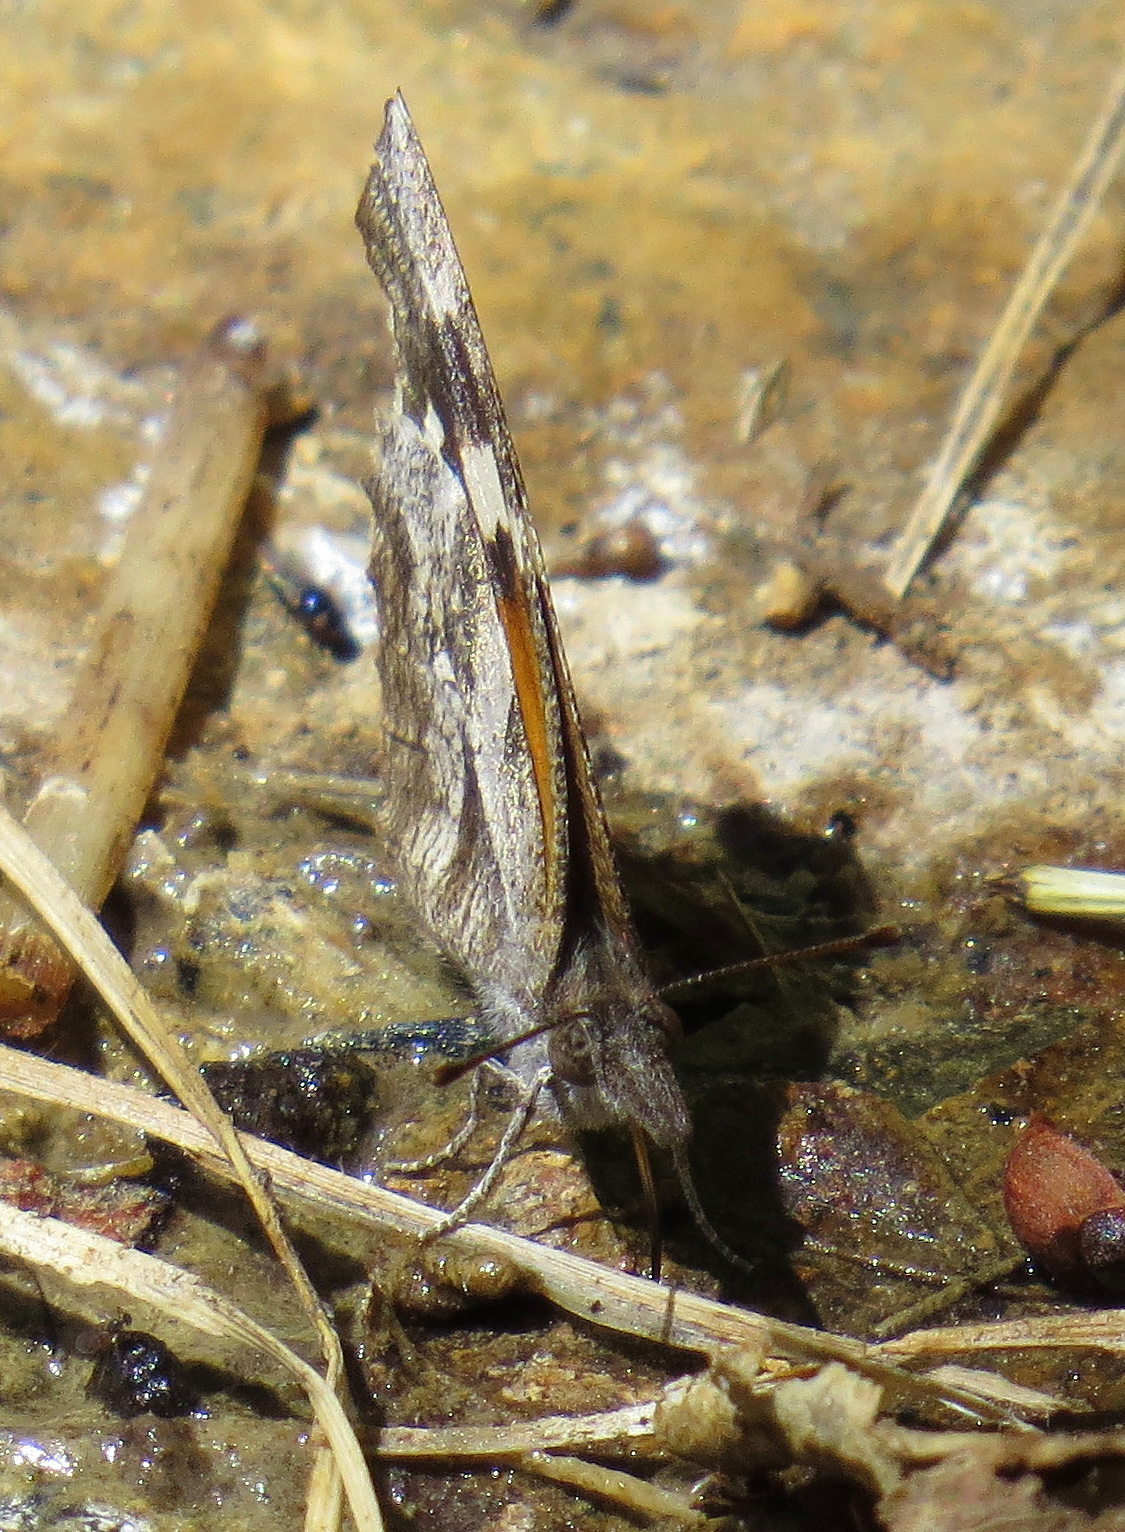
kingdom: Animalia
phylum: Arthropoda
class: Insecta
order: Lepidoptera
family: Nymphalidae
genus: Libytheana
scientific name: Libytheana carinenta
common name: American snout
